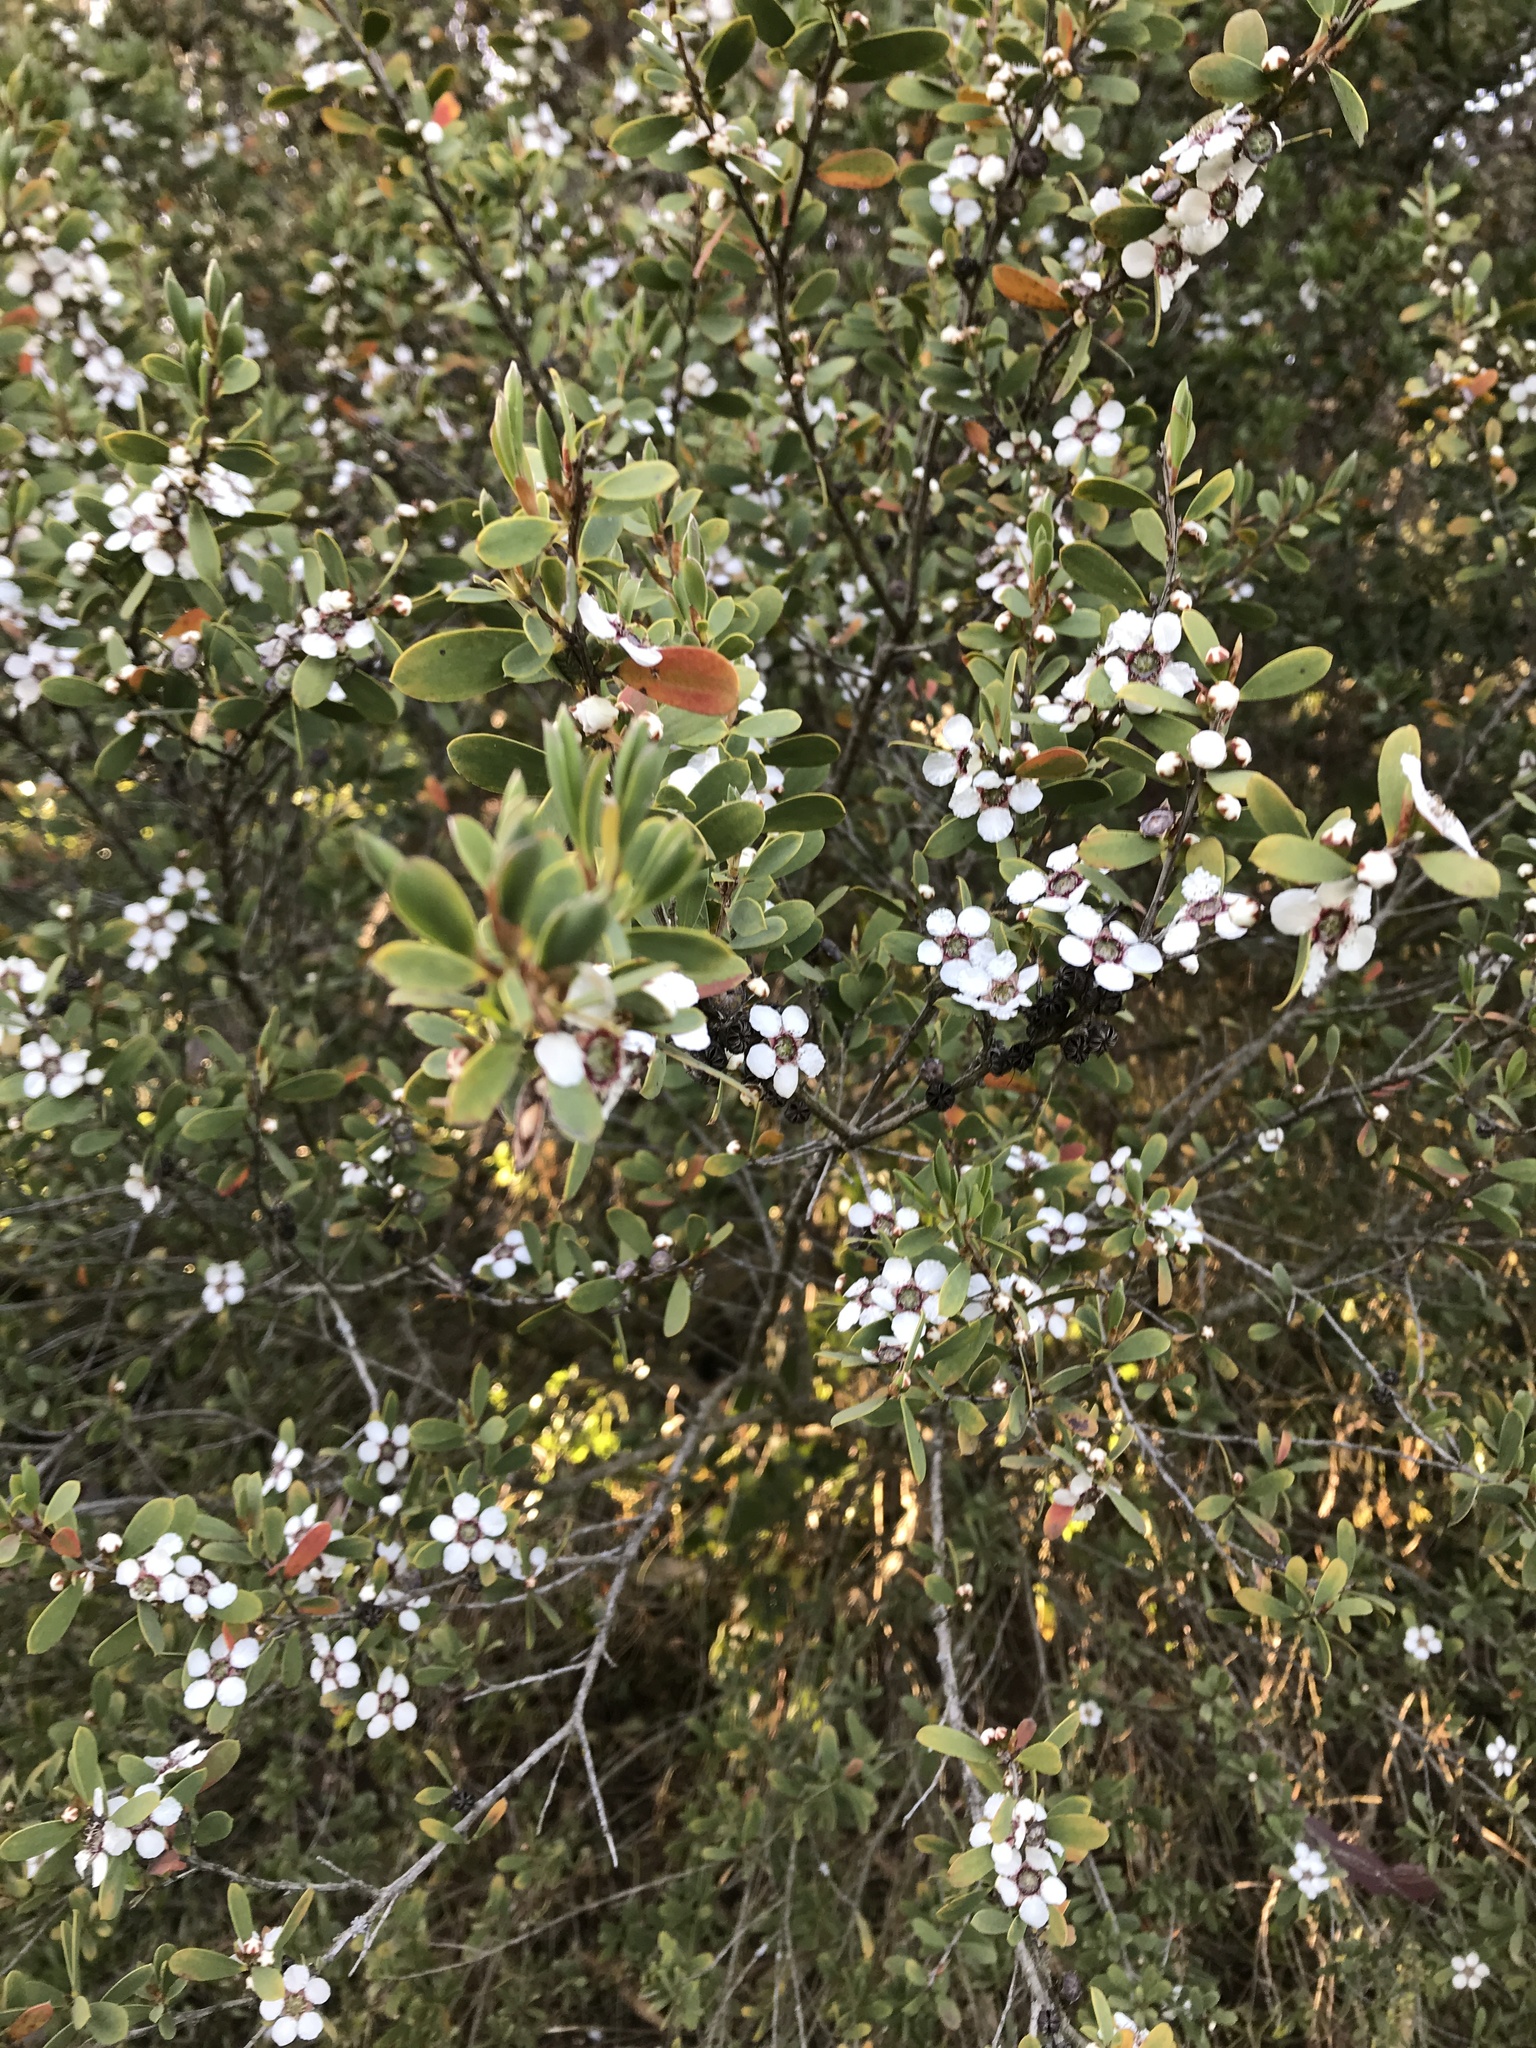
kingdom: Plantae
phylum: Tracheophyta
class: Magnoliopsida
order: Myrtales
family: Myrtaceae
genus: Leptospermum
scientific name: Leptospermum laevigatum
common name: Australian teatree
